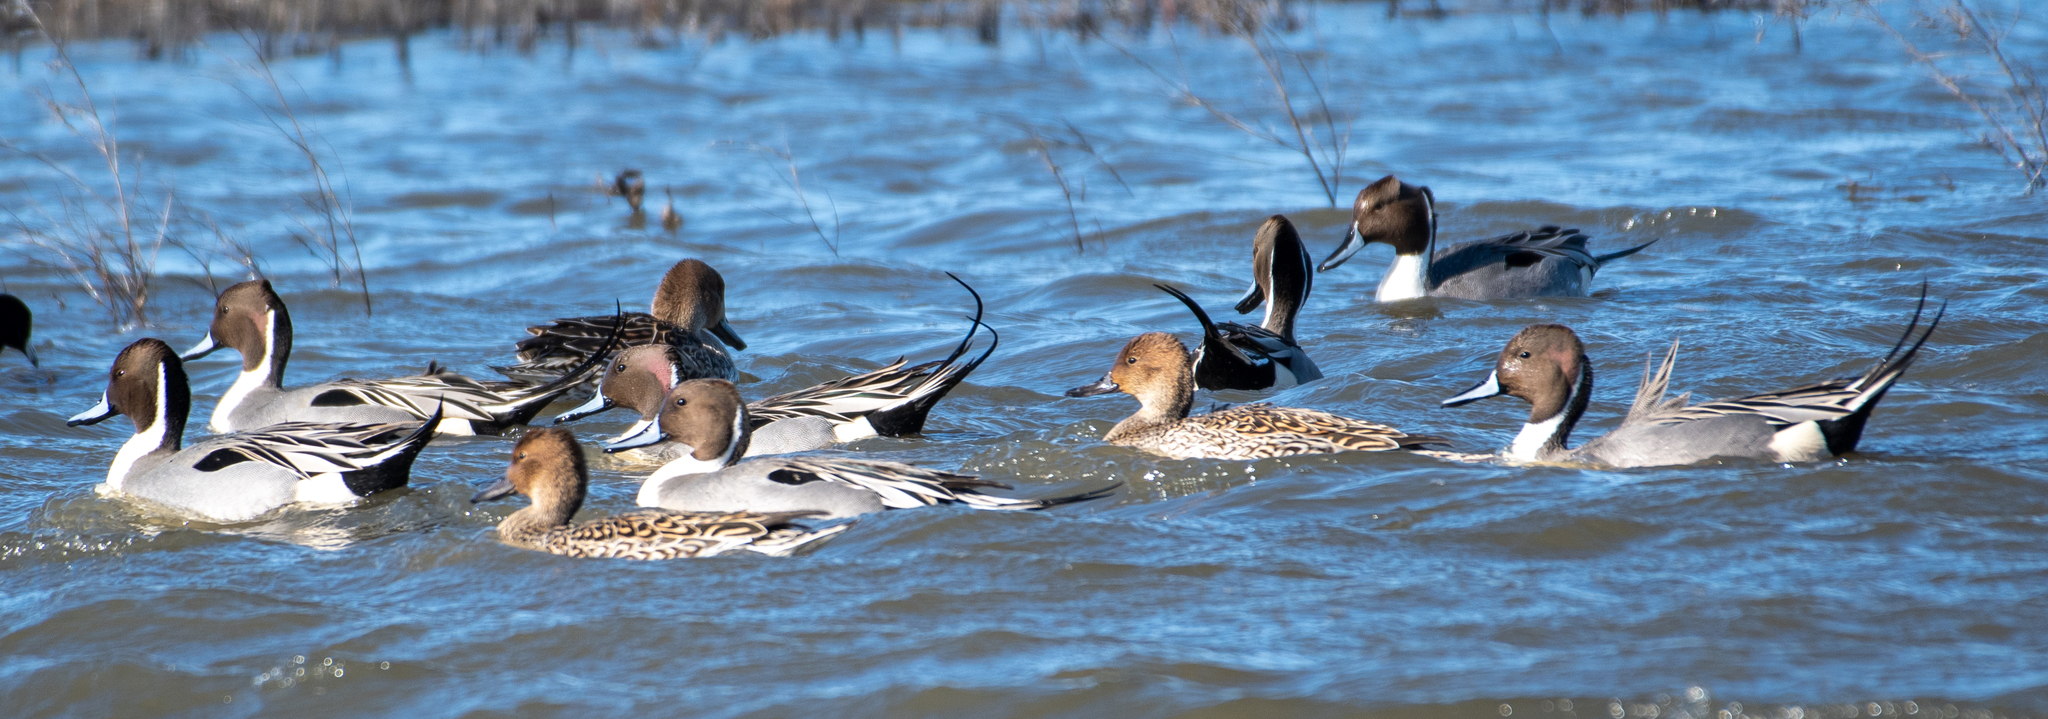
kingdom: Animalia
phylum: Chordata
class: Aves
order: Anseriformes
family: Anatidae
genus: Anas
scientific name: Anas acuta
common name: Northern pintail
